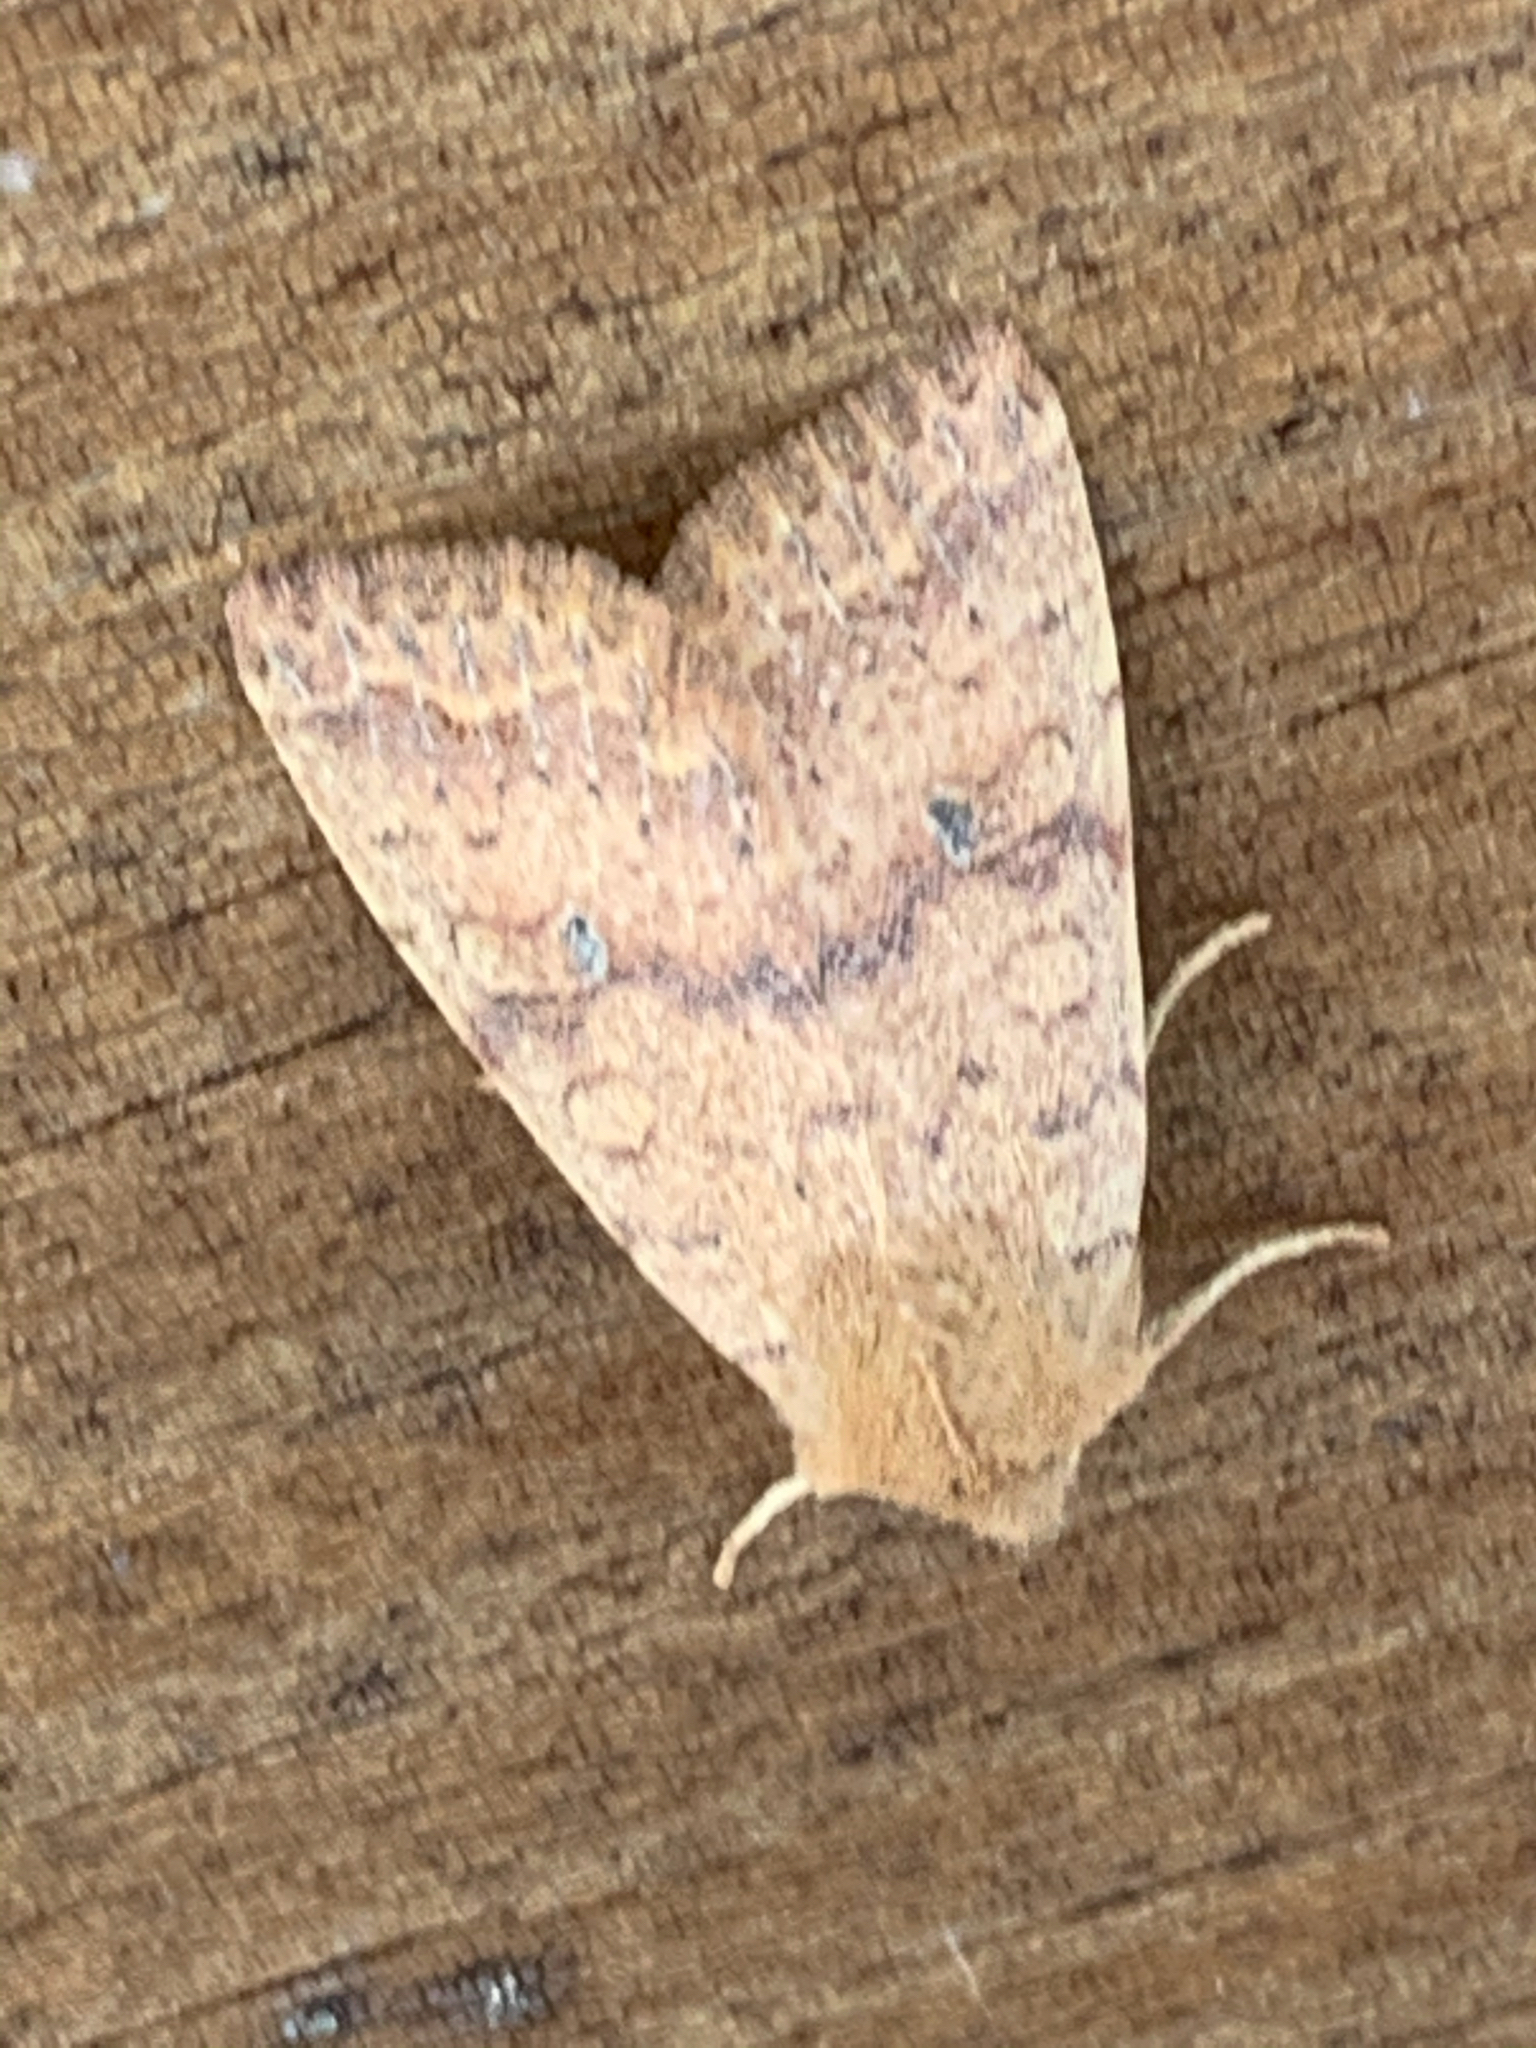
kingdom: Animalia
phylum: Arthropoda
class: Insecta
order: Lepidoptera
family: Noctuidae
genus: Agrochola
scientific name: Agrochola bicolorago
